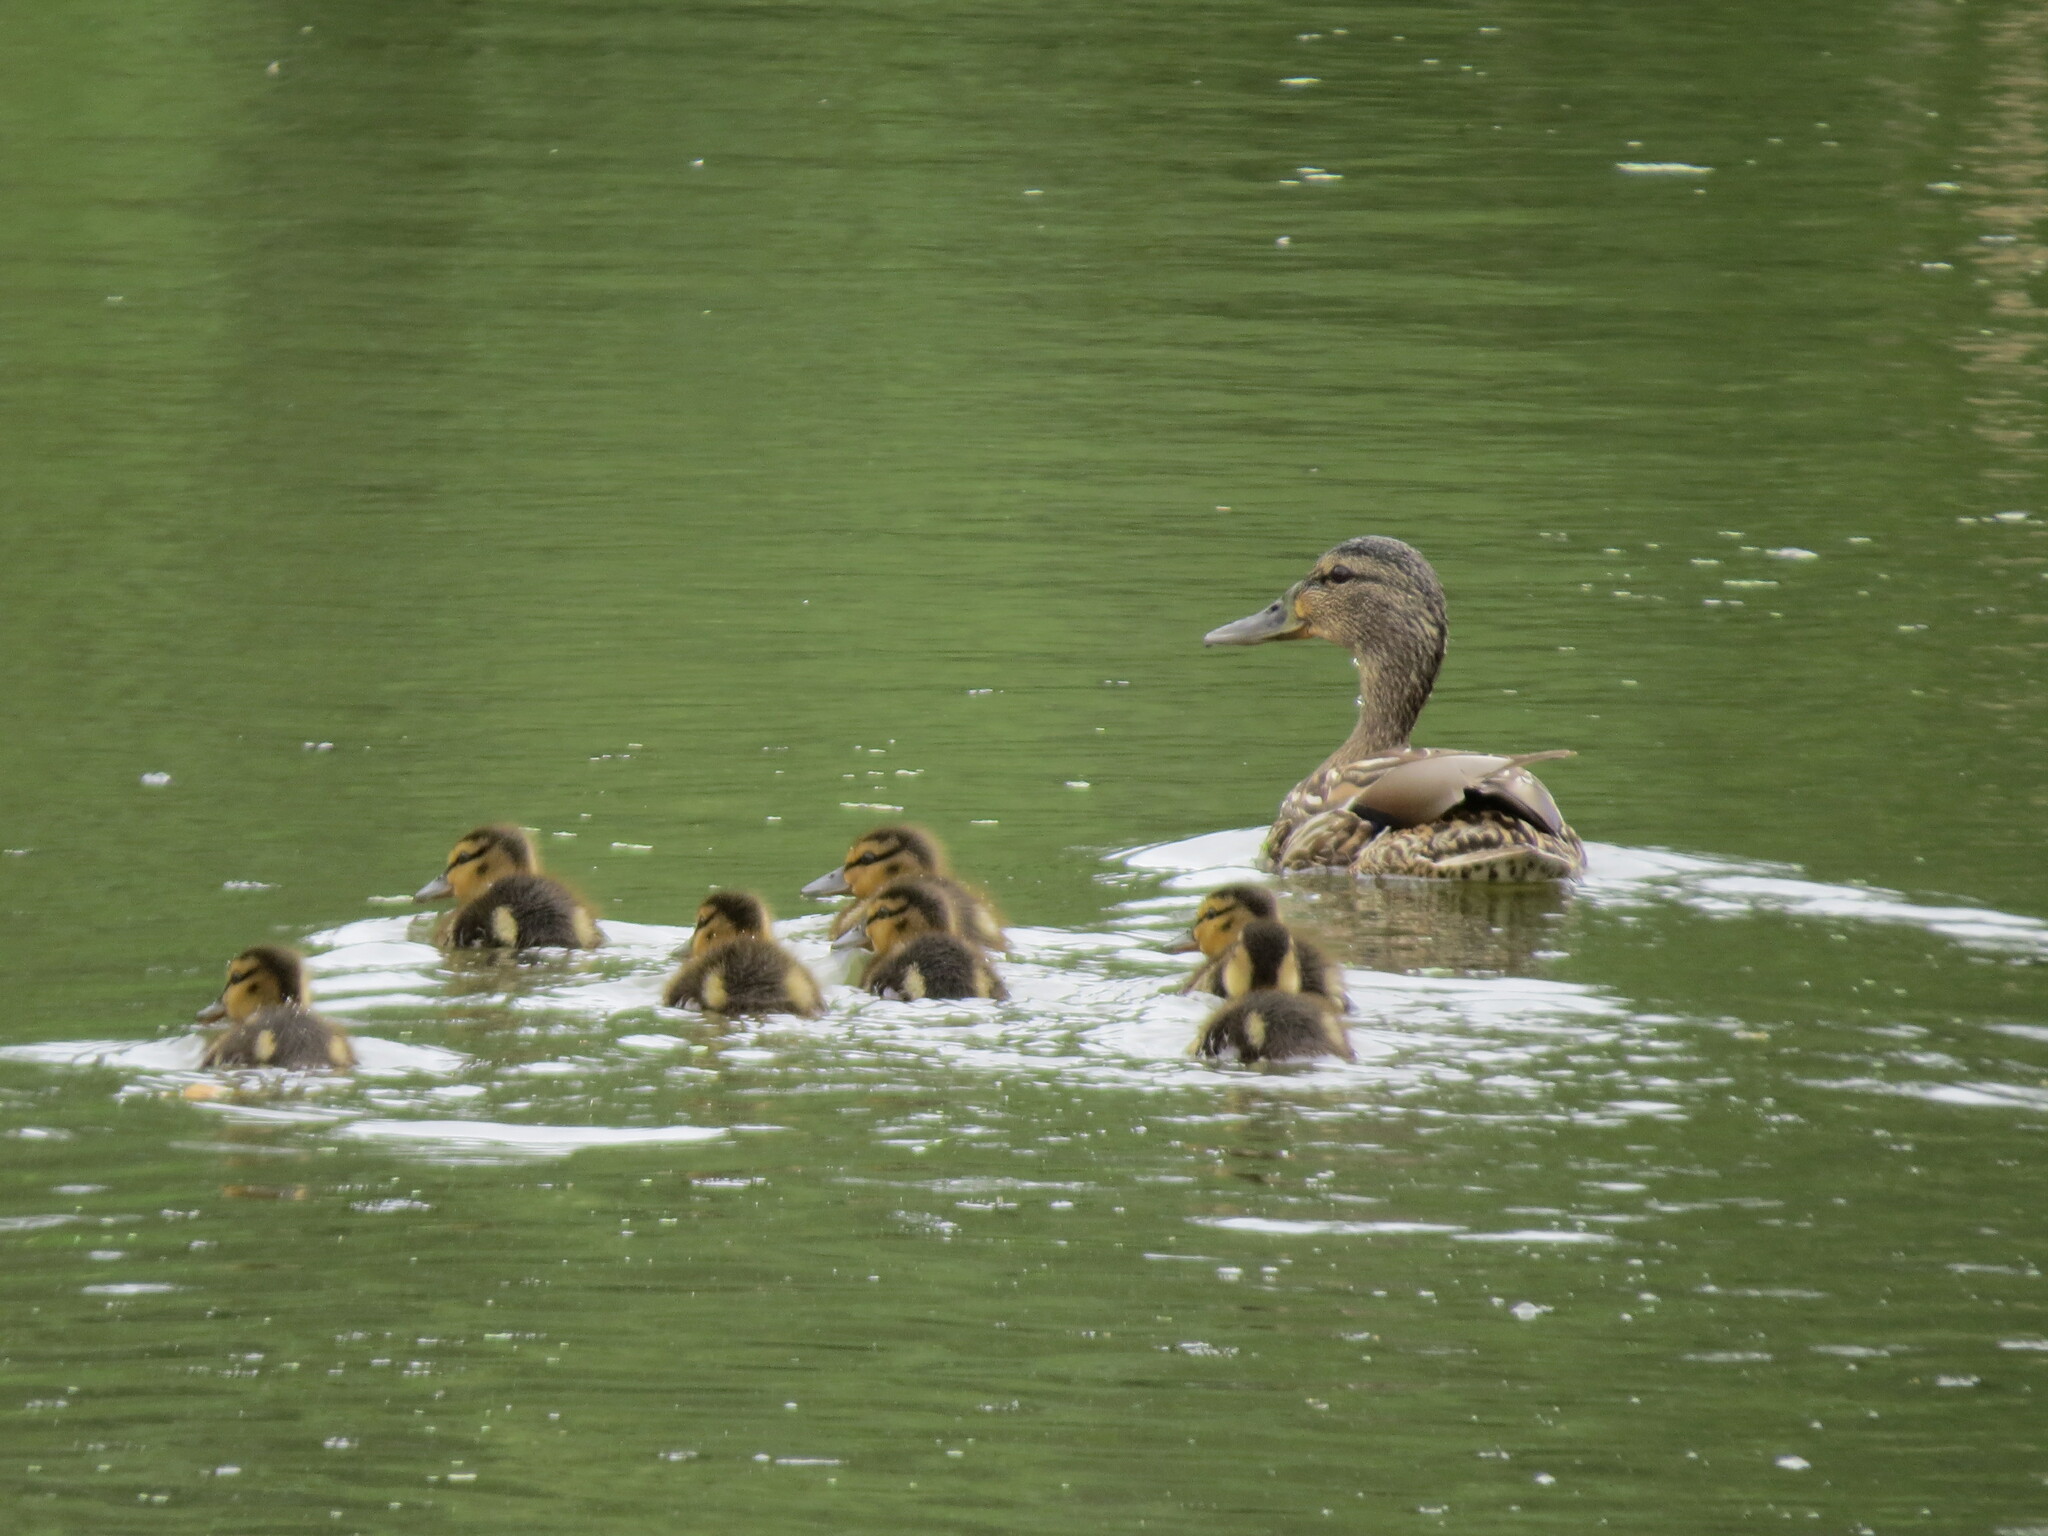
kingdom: Animalia
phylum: Chordata
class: Aves
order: Anseriformes
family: Anatidae
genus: Anas
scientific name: Anas platyrhynchos
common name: Mallard
